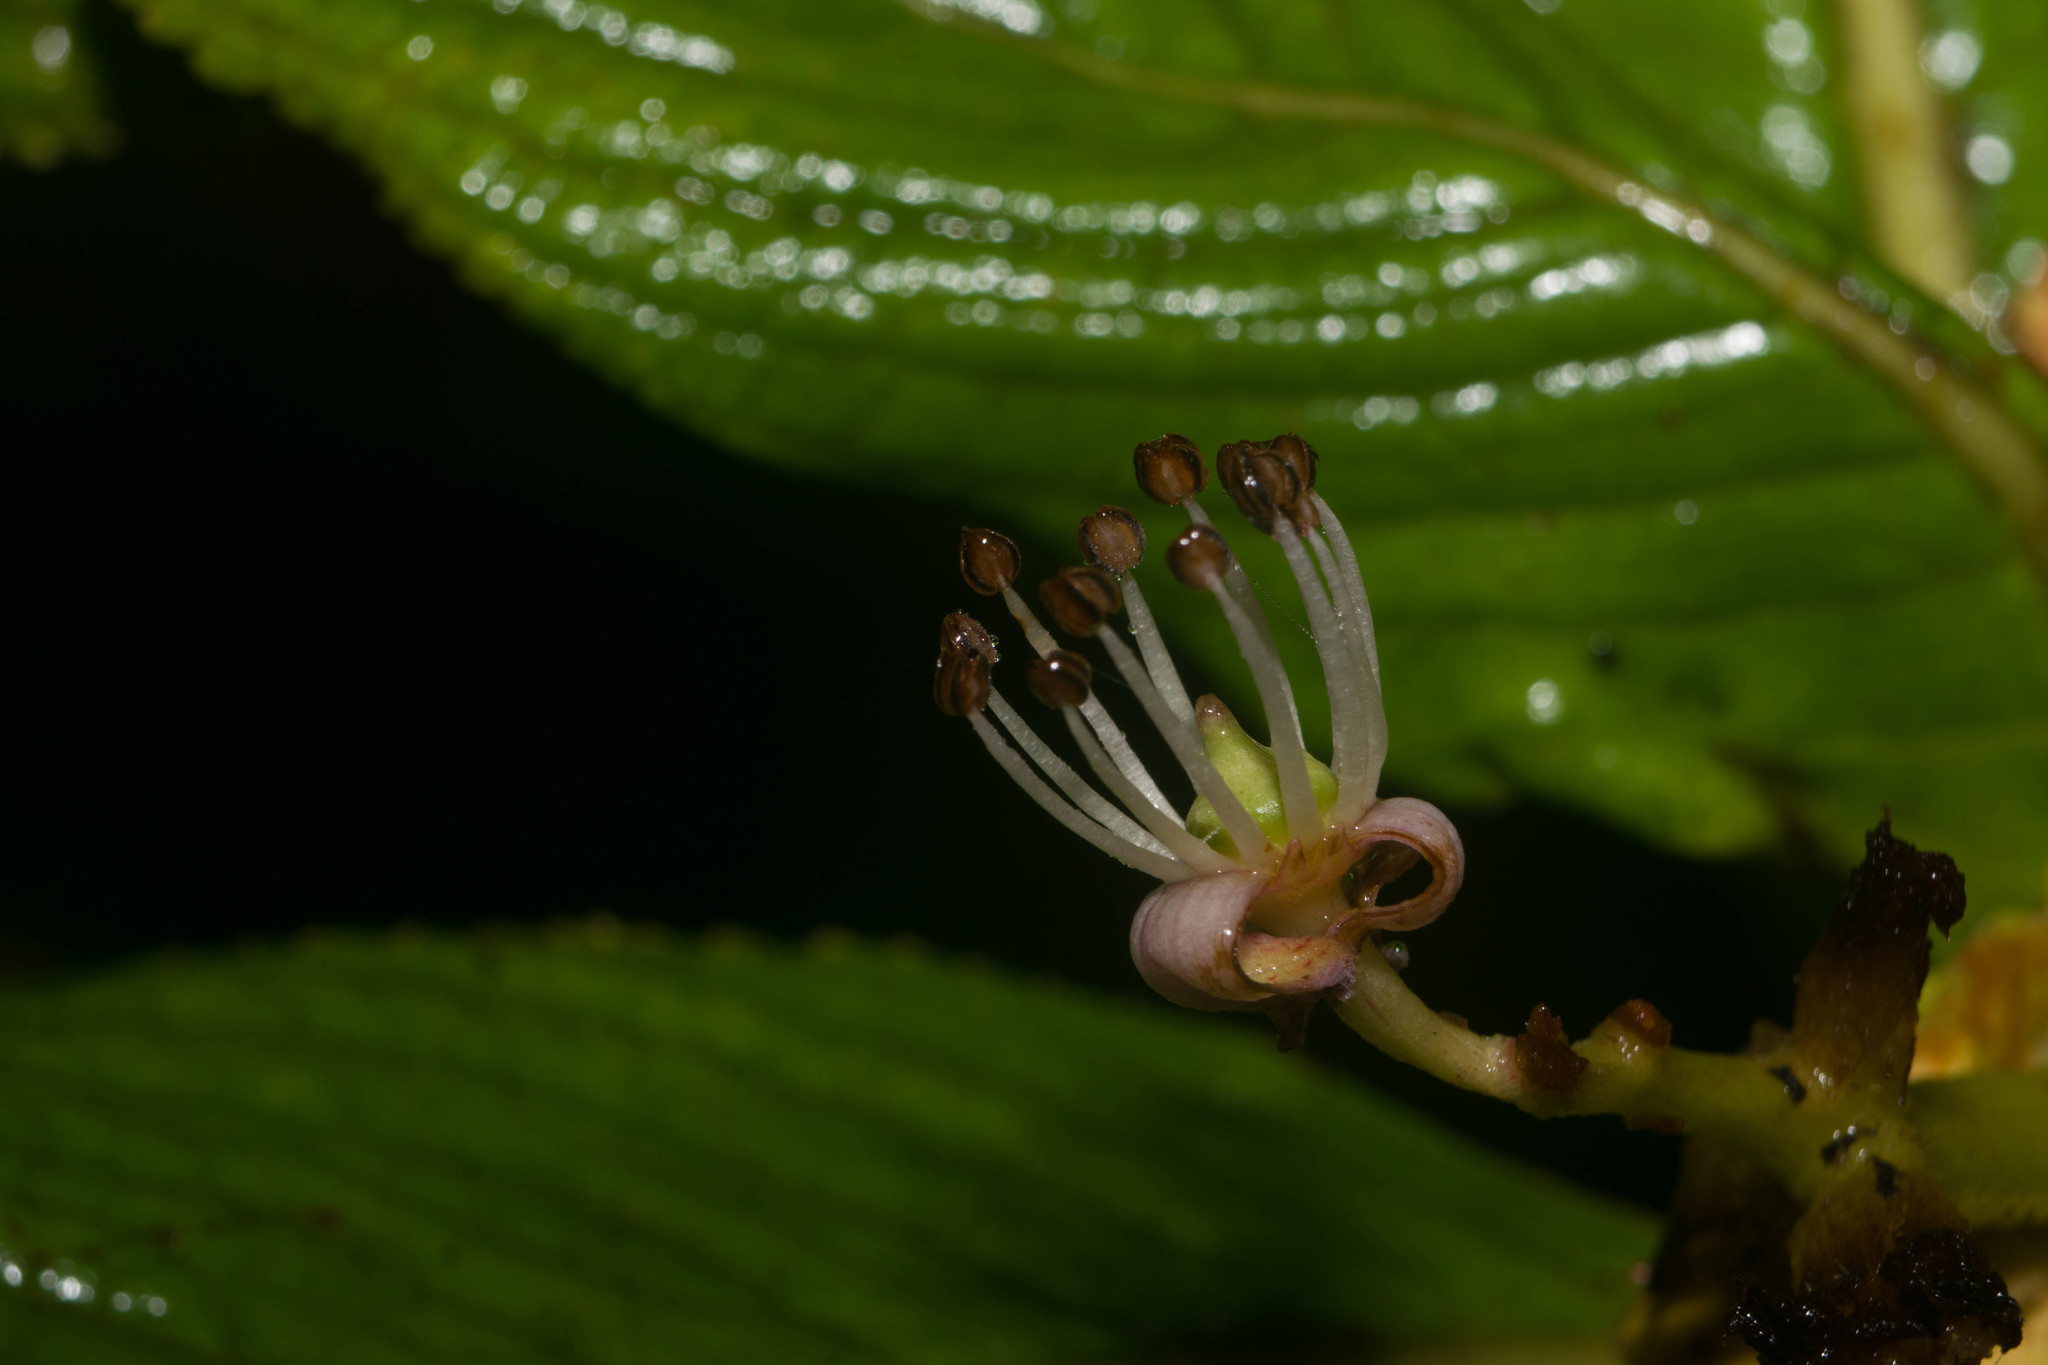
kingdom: Plantae
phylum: Tracheophyta
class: Magnoliopsida
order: Cornales
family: Hydrangeaceae
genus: Hydrangea
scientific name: Hydrangea arguta
